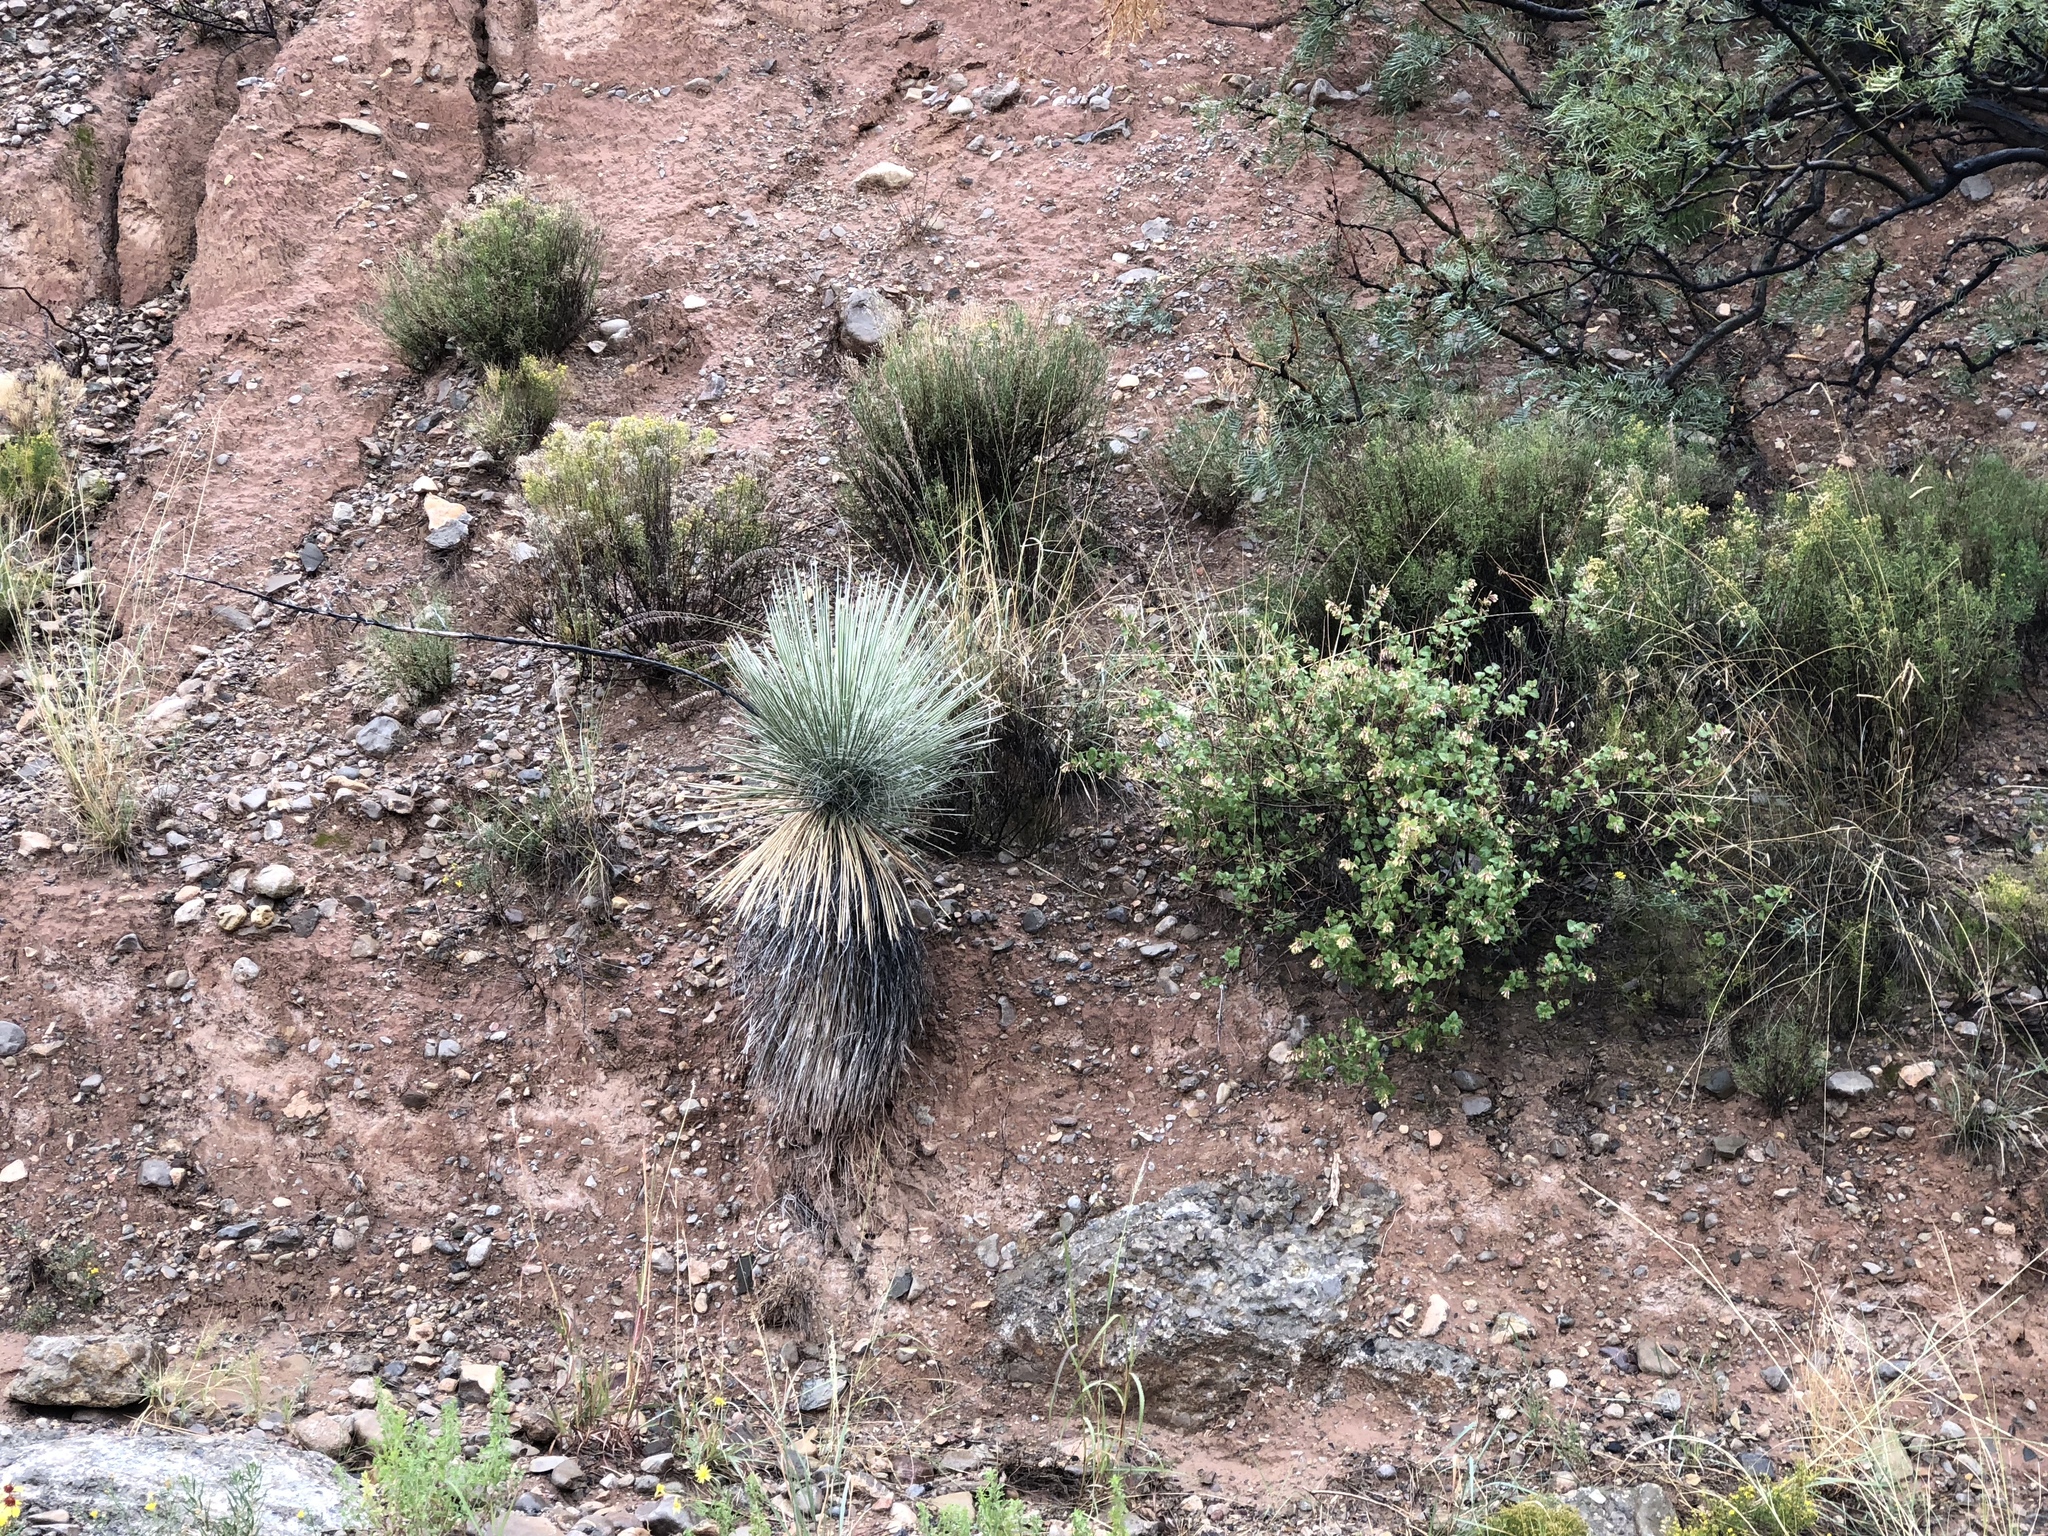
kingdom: Plantae
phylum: Tracheophyta
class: Liliopsida
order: Asparagales
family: Asparagaceae
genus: Yucca
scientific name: Yucca elata
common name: Palmella
